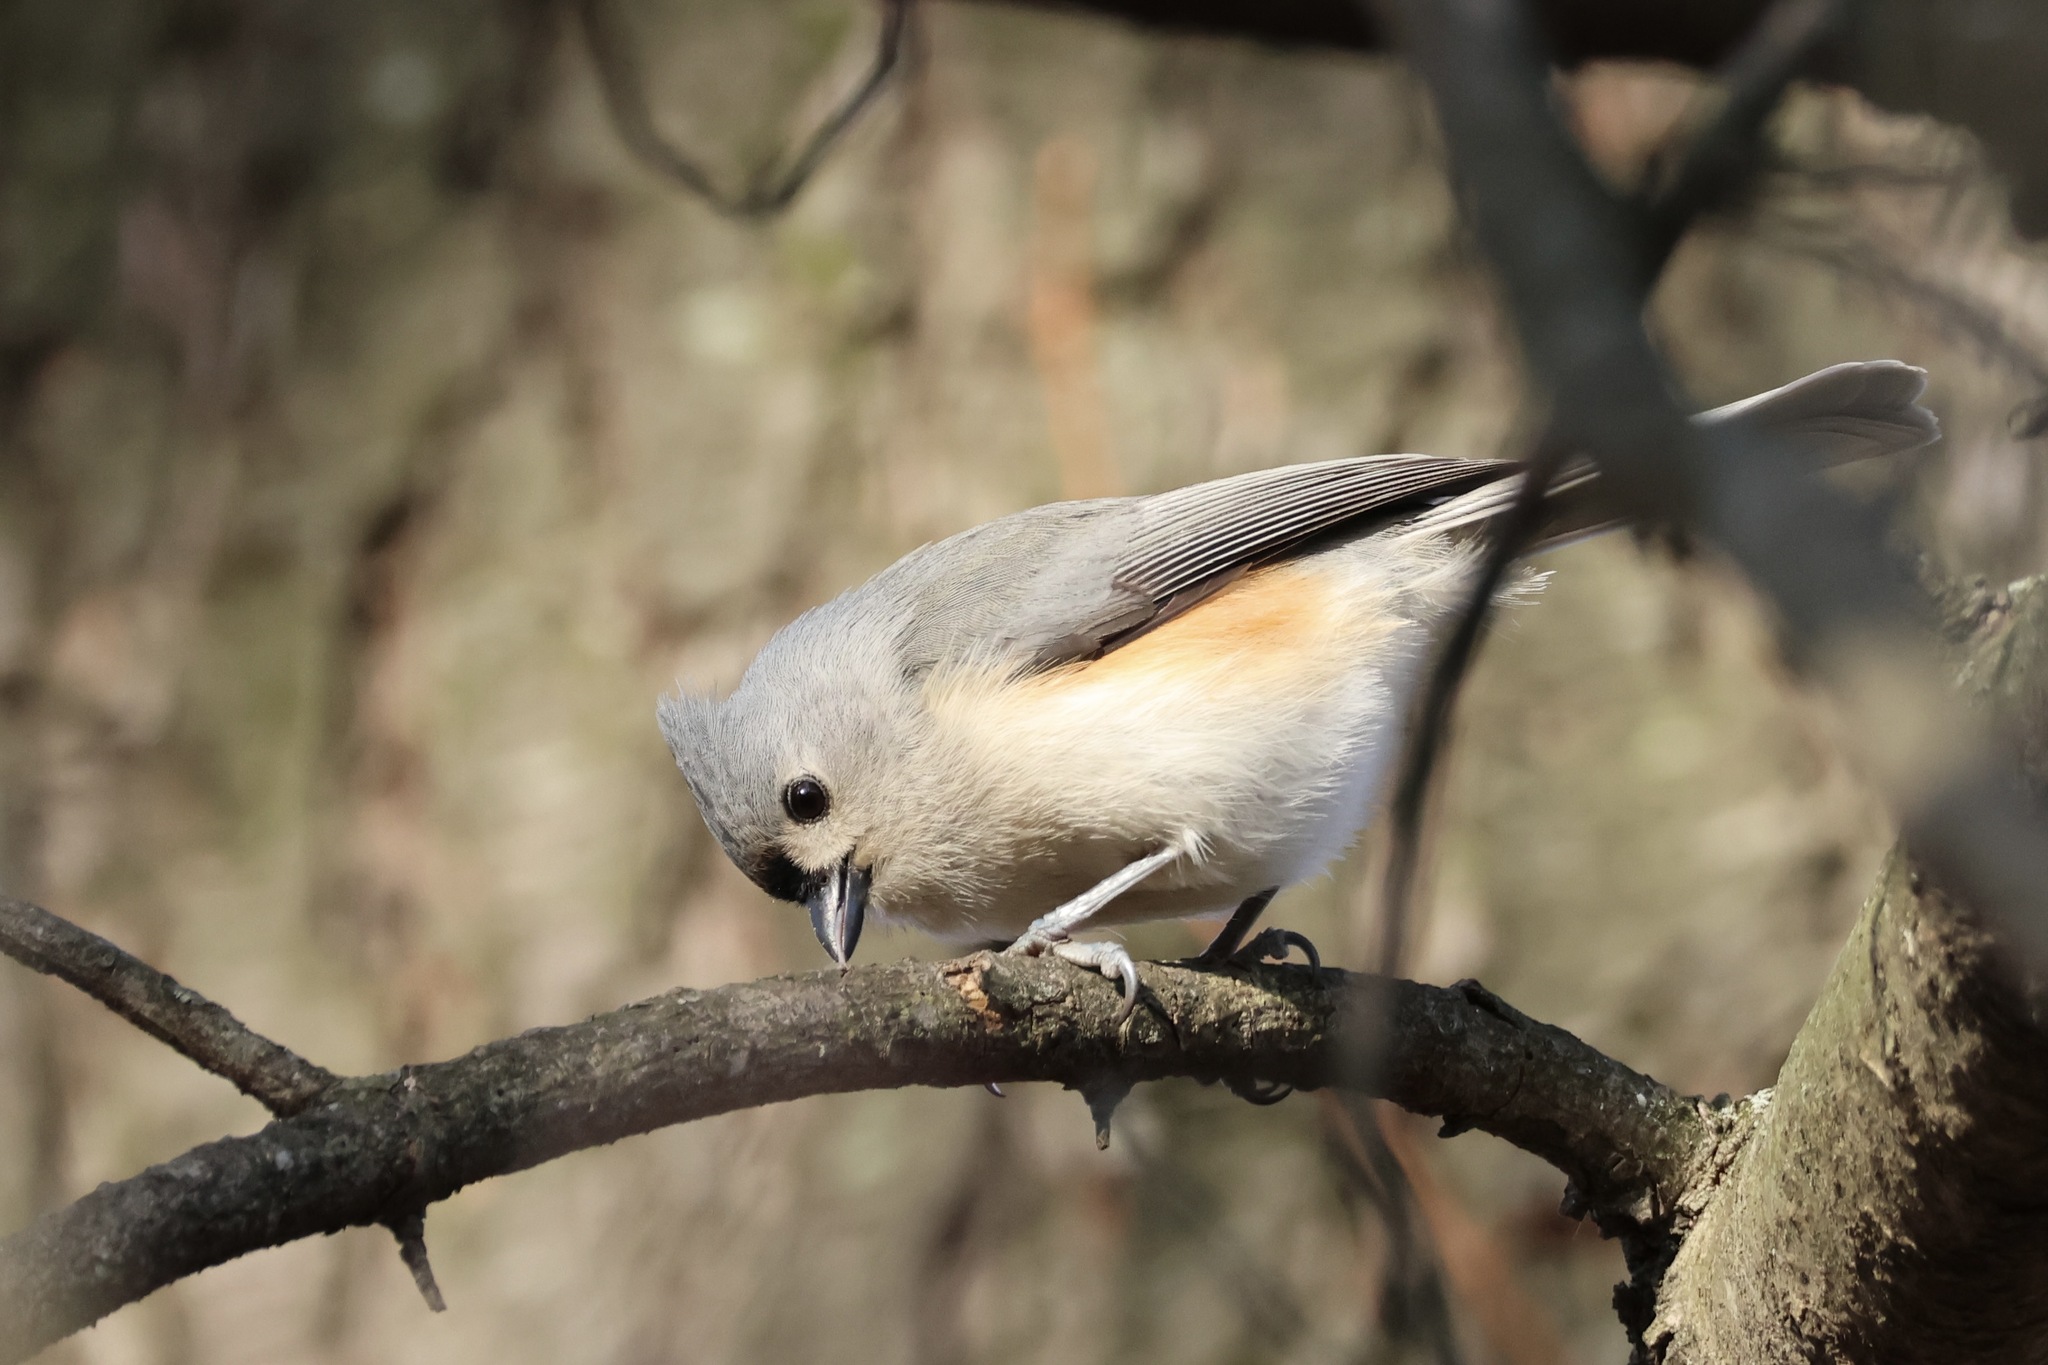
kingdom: Animalia
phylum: Chordata
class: Aves
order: Passeriformes
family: Paridae
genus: Baeolophus
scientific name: Baeolophus bicolor
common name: Tufted titmouse
